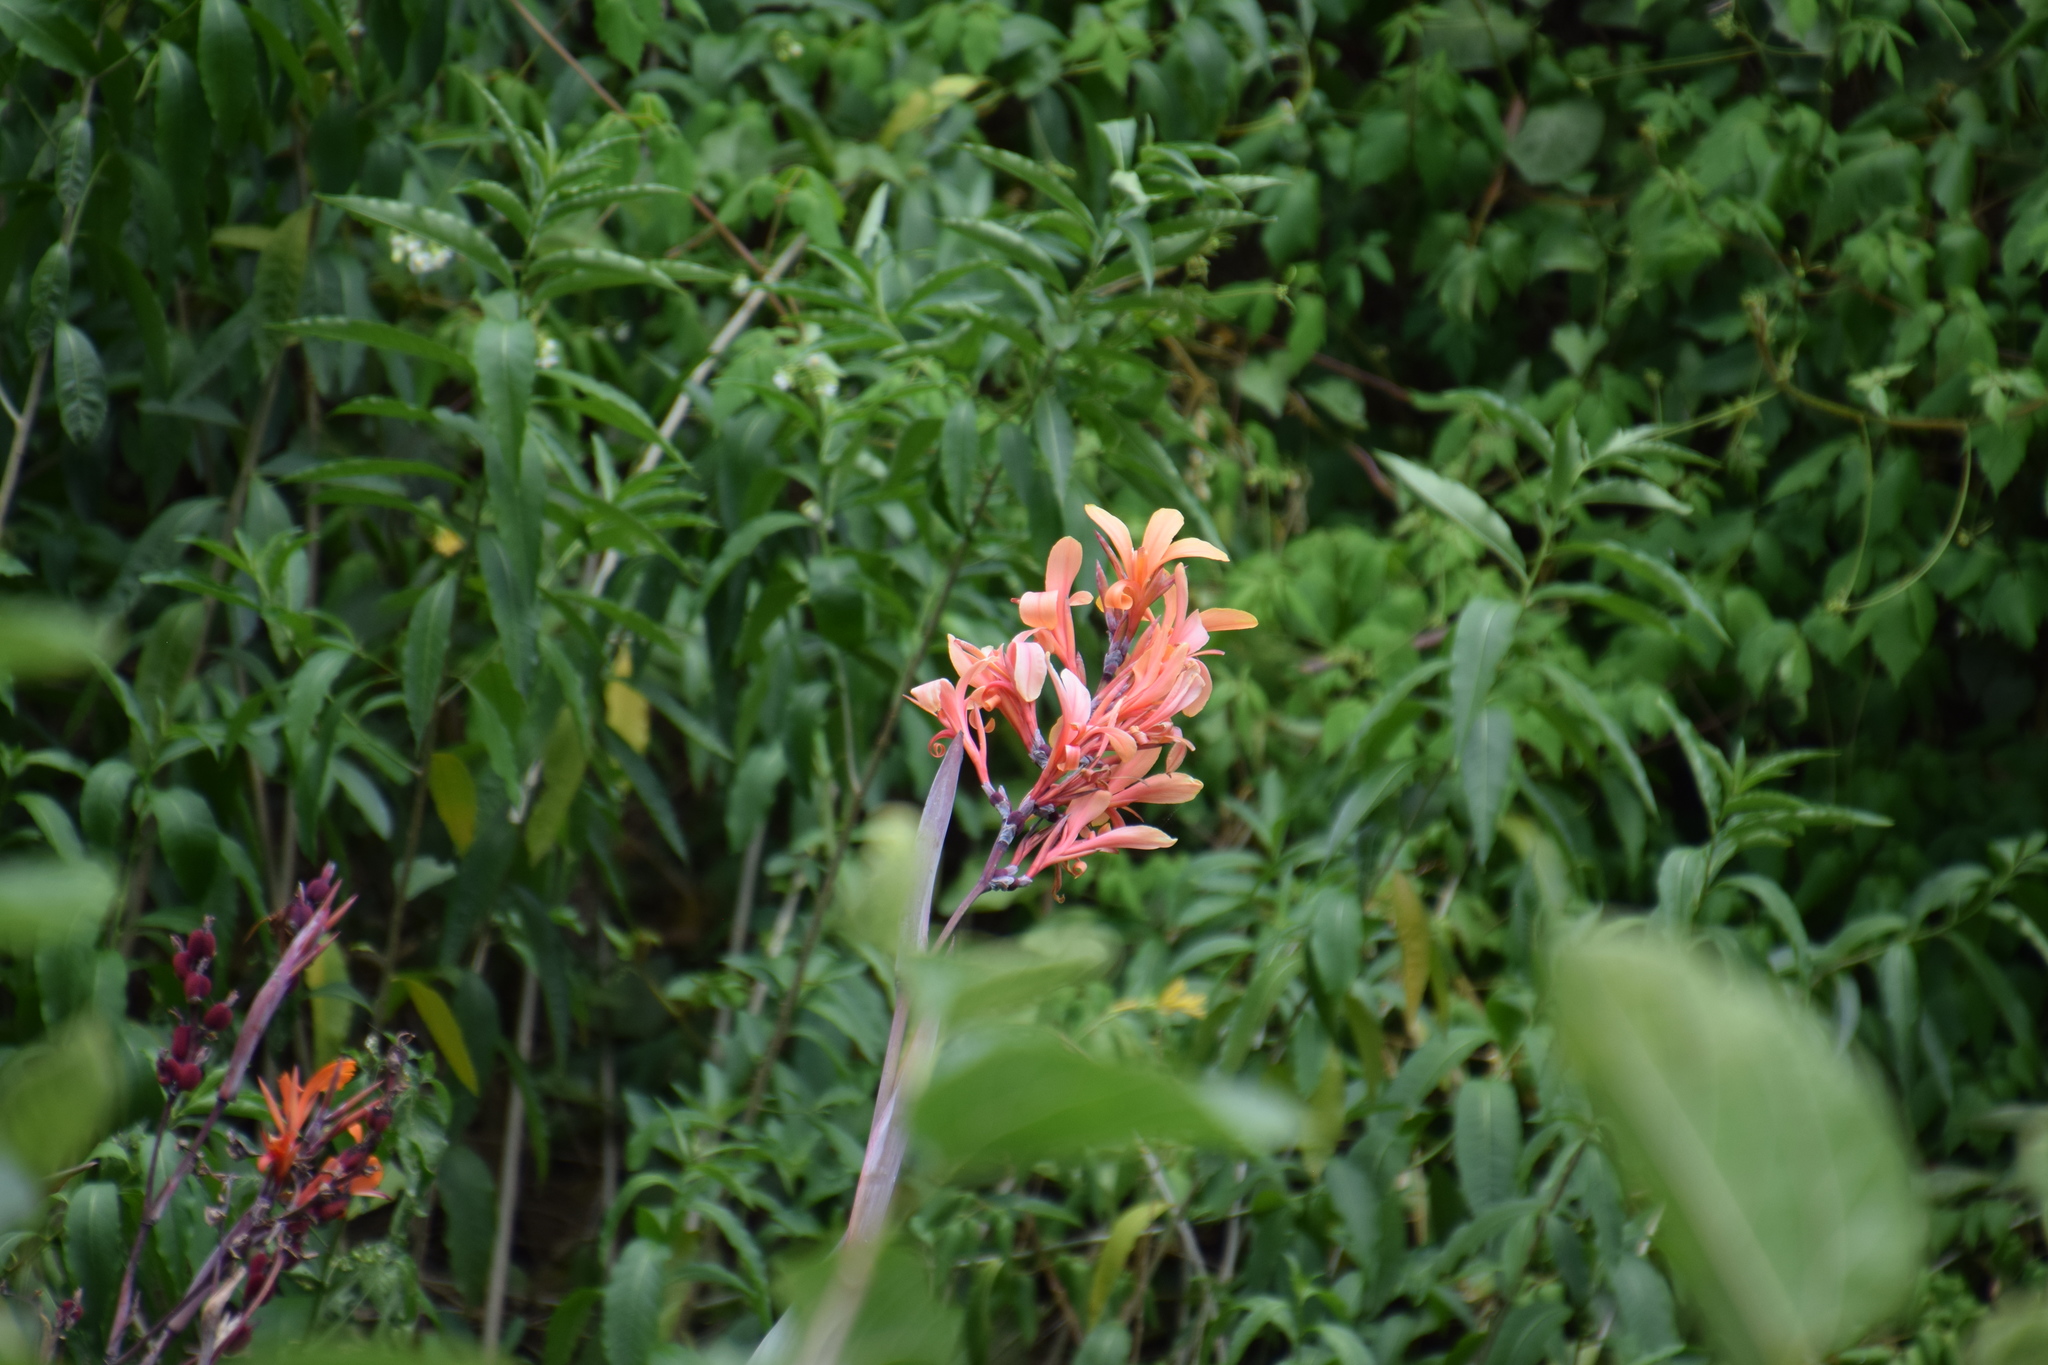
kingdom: Plantae
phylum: Tracheophyta
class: Liliopsida
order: Zingiberales
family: Cannaceae
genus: Canna
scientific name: Canna indica
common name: Indian shot
